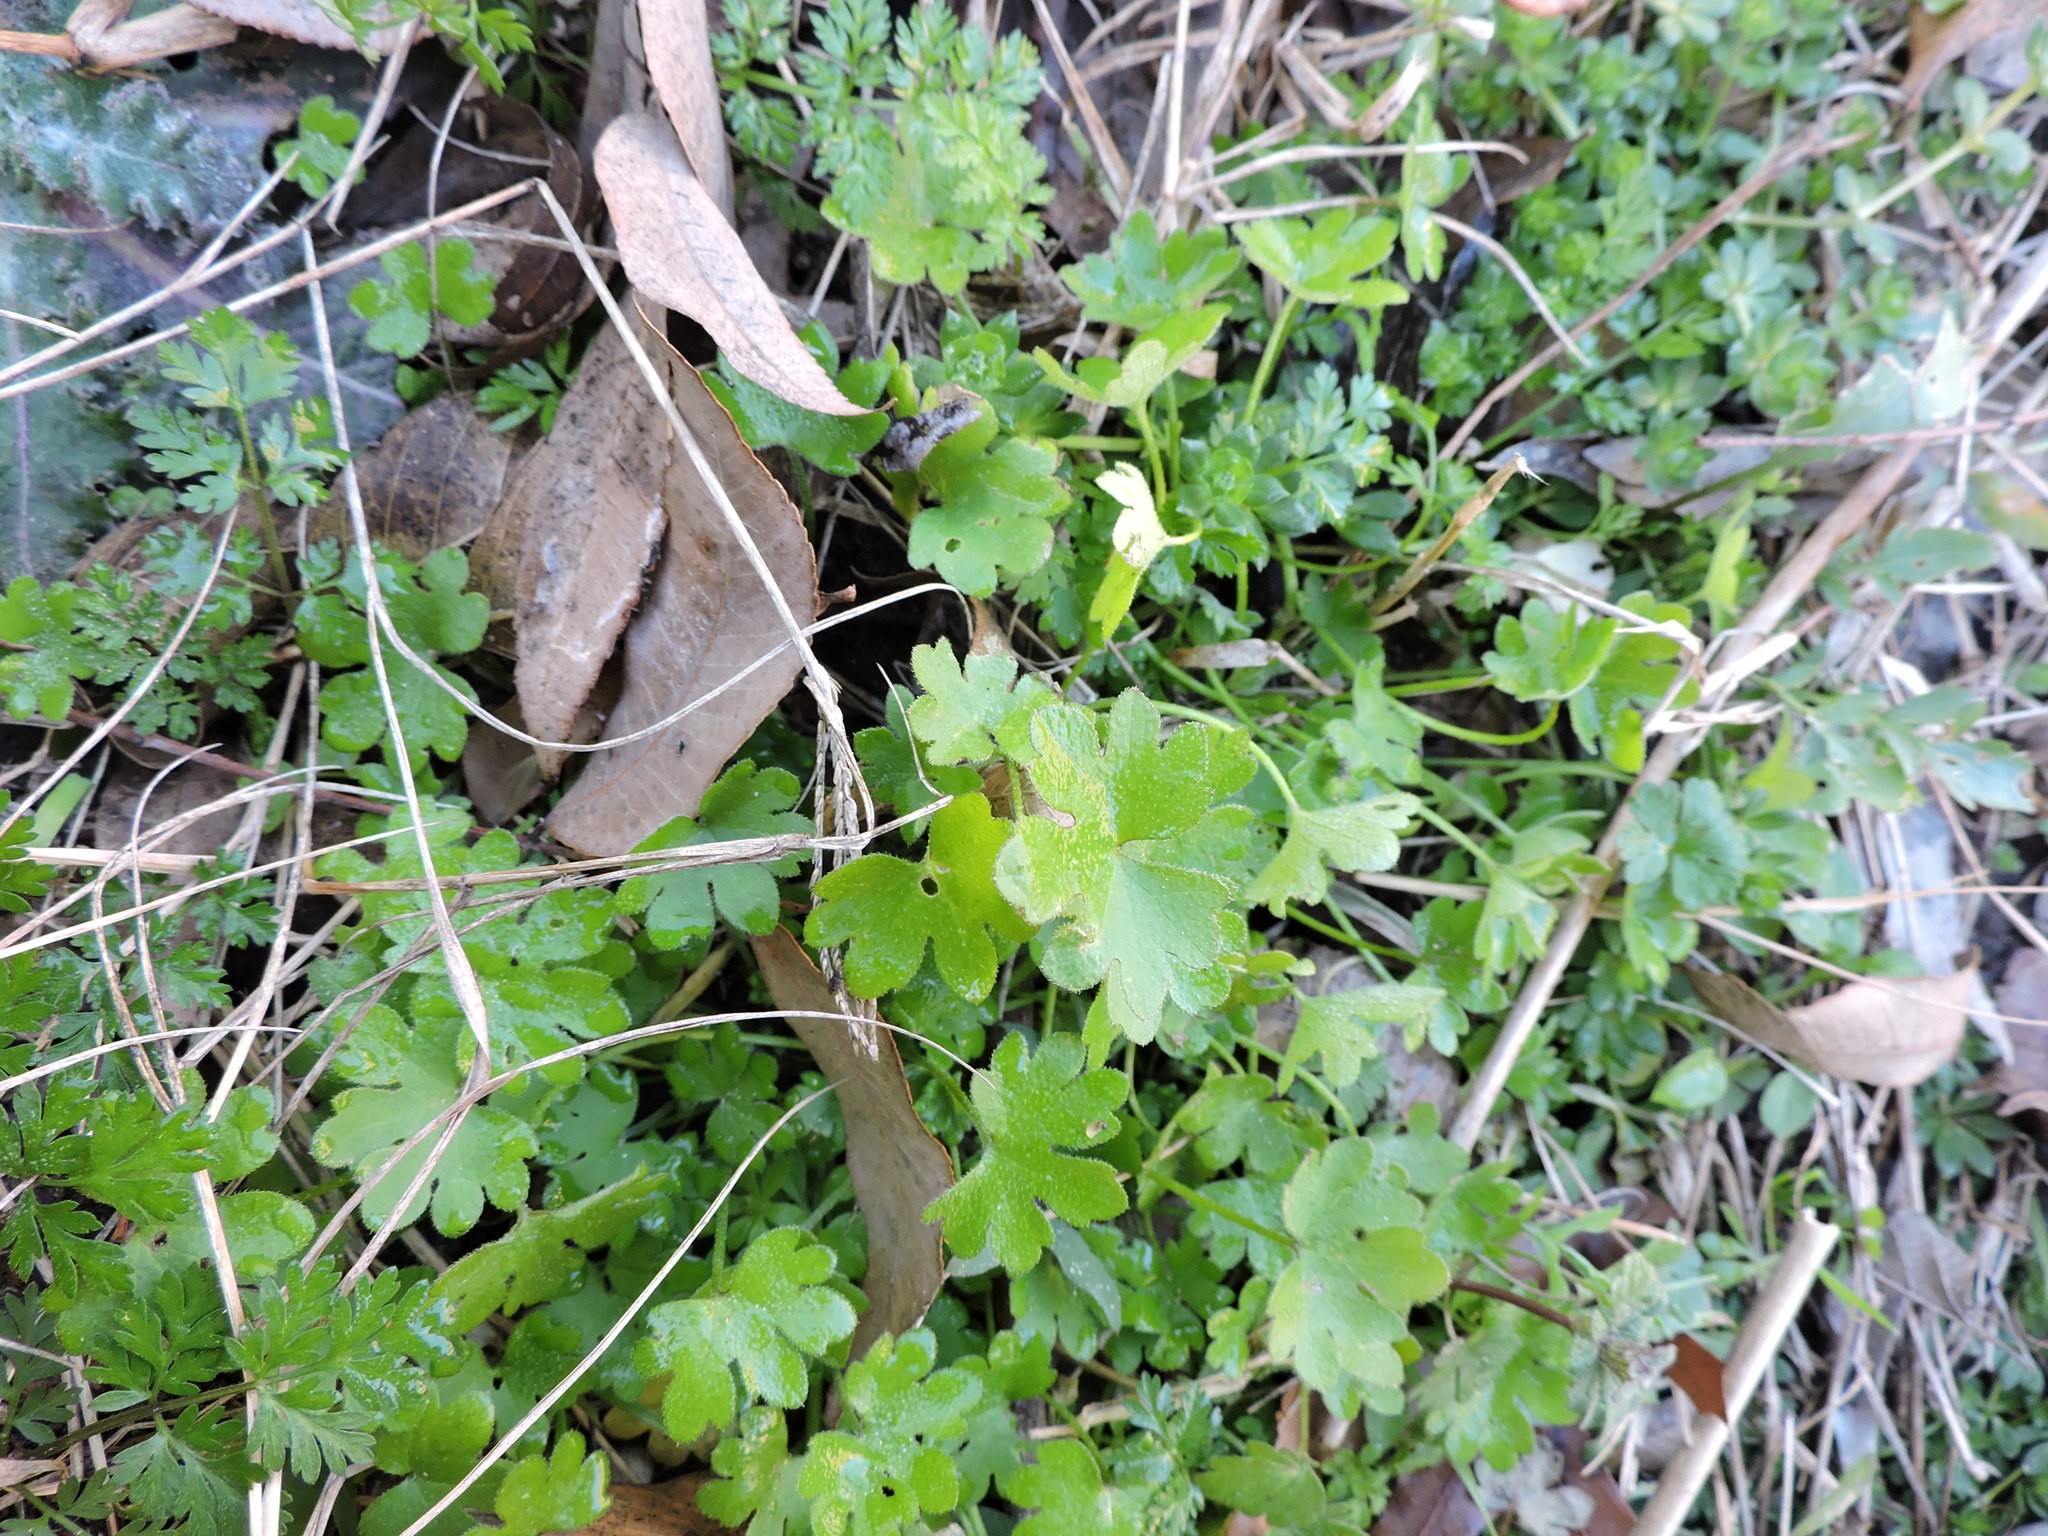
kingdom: Plantae
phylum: Tracheophyta
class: Magnoliopsida
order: Apiales
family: Apiaceae
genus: Bowlesia
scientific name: Bowlesia incana
